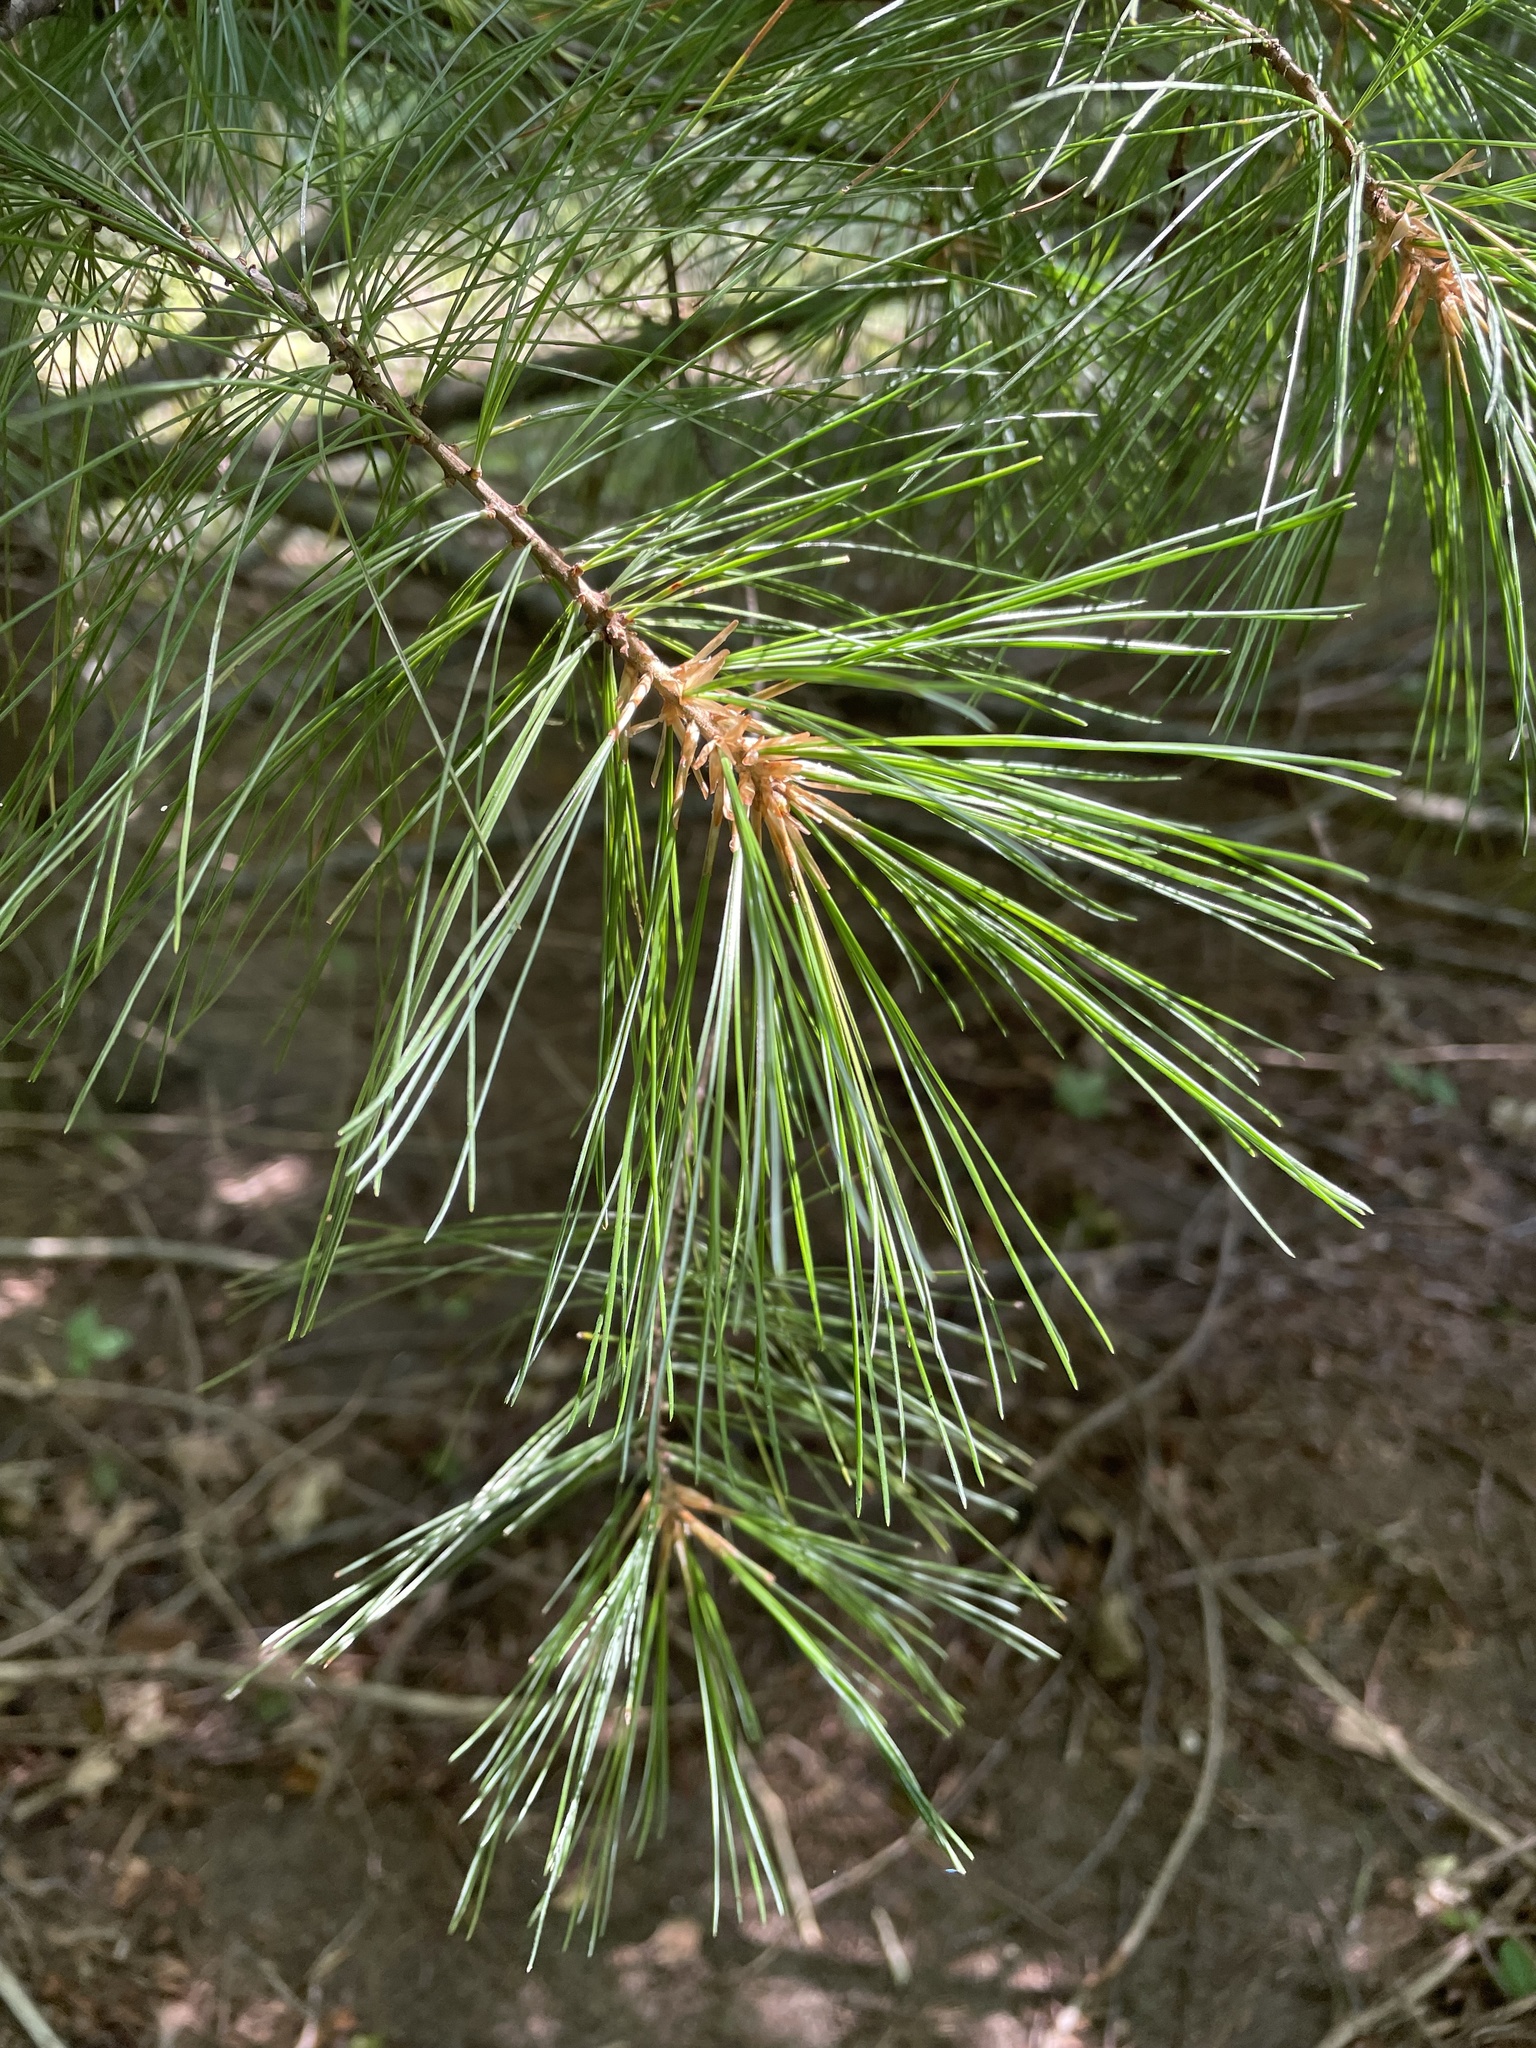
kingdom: Plantae
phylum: Tracheophyta
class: Pinopsida
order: Pinales
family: Pinaceae
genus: Pinus
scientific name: Pinus strobus
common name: Weymouth pine
